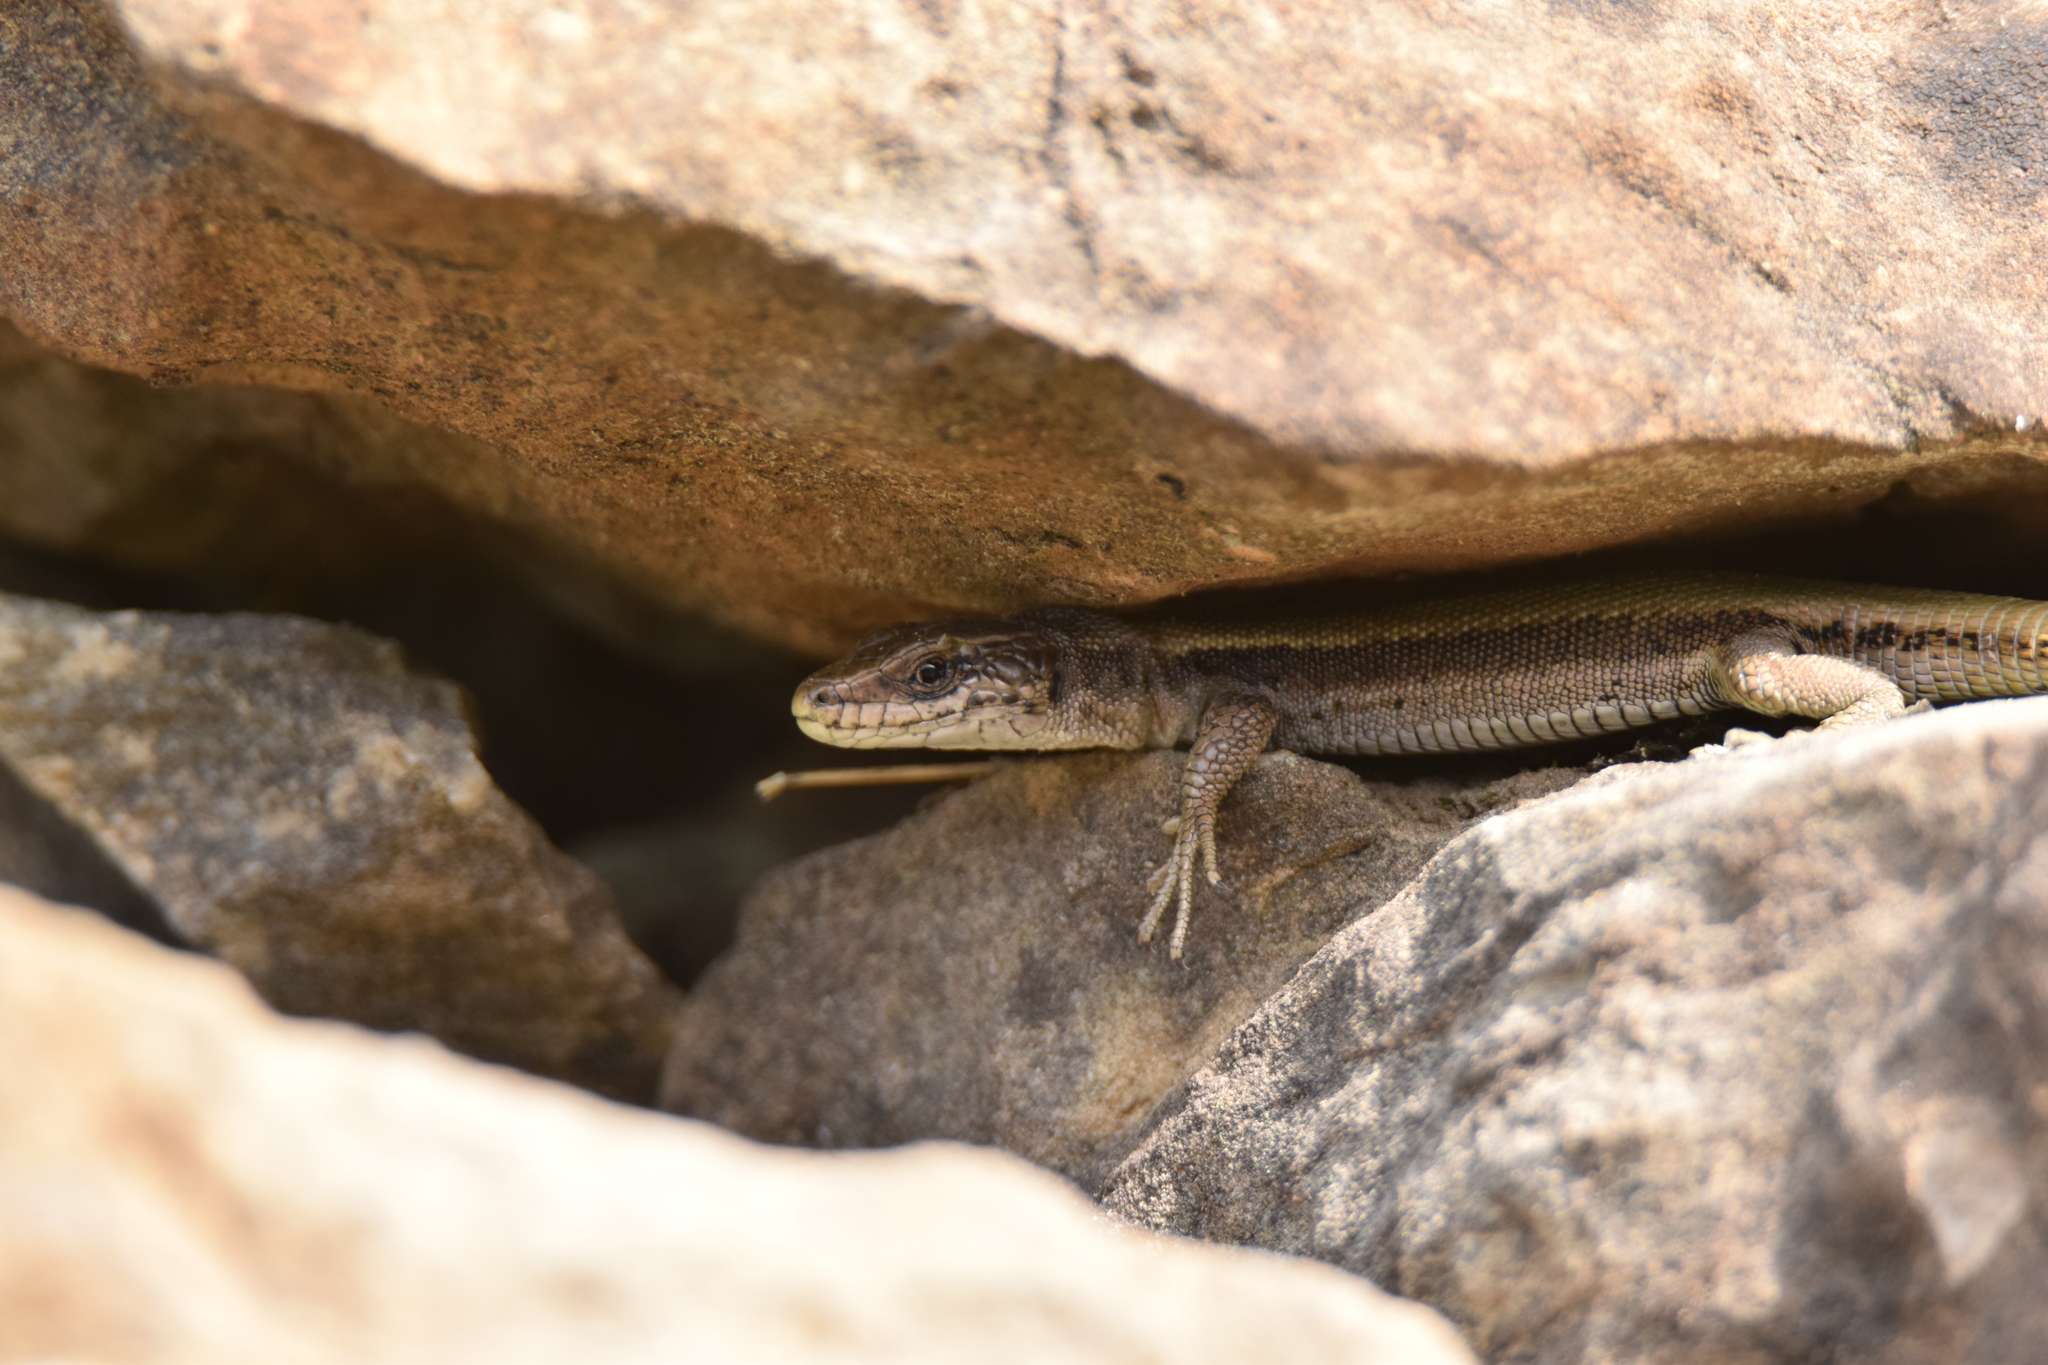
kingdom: Animalia
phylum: Chordata
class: Squamata
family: Lacertidae
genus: Iberolacerta
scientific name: Iberolacerta bonnali
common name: Pyrenean rock lizard
